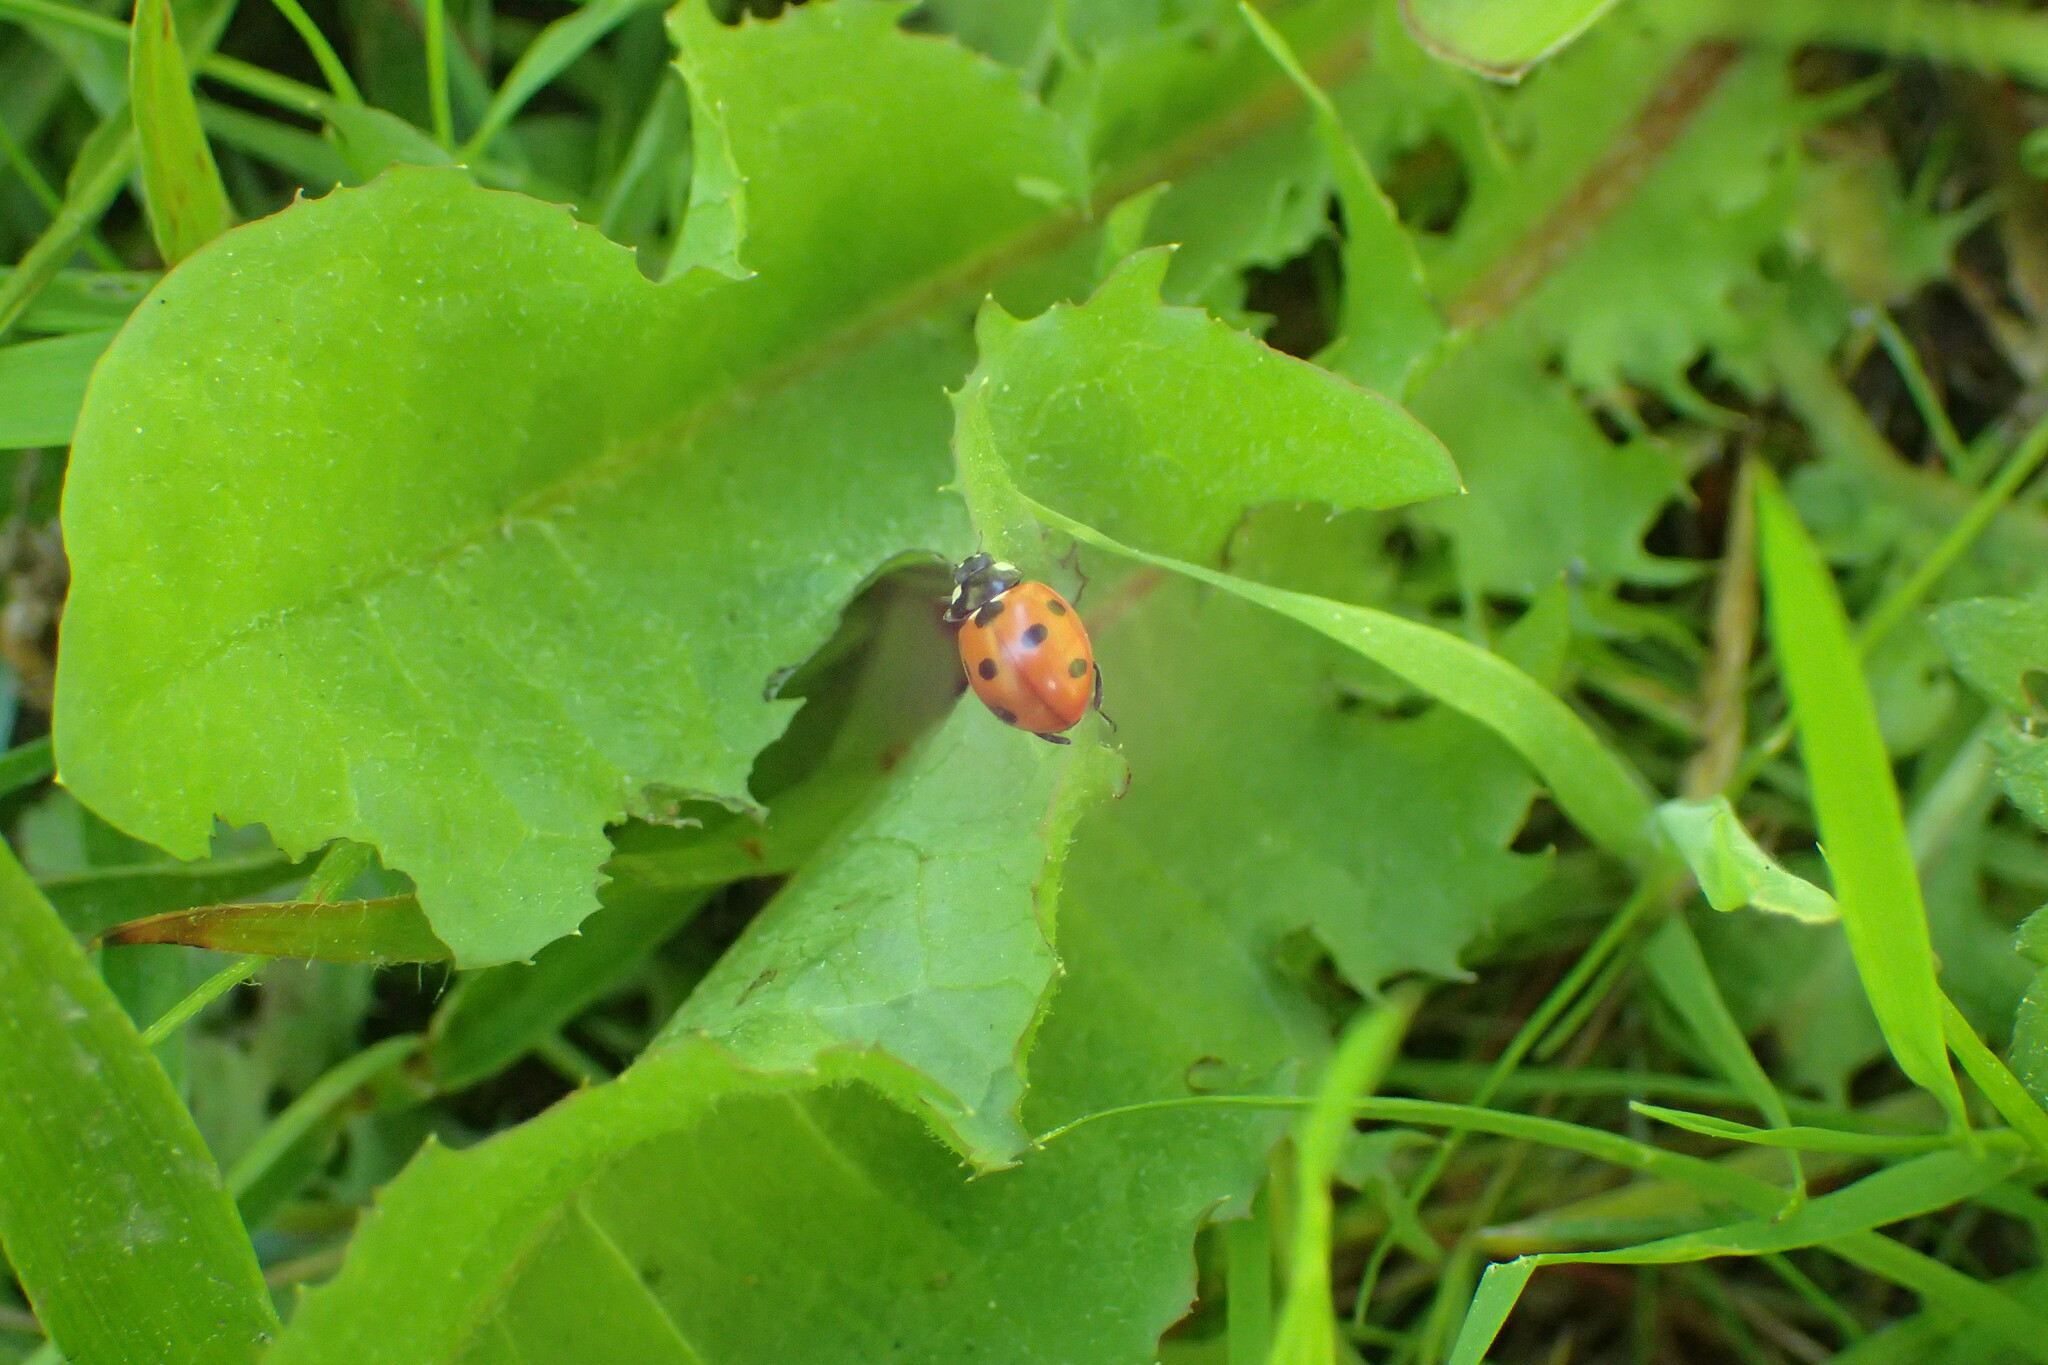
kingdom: Animalia
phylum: Arthropoda
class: Insecta
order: Coleoptera
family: Coccinellidae
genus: Coccinella
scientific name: Coccinella septempunctata
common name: Sevenspotted lady beetle
